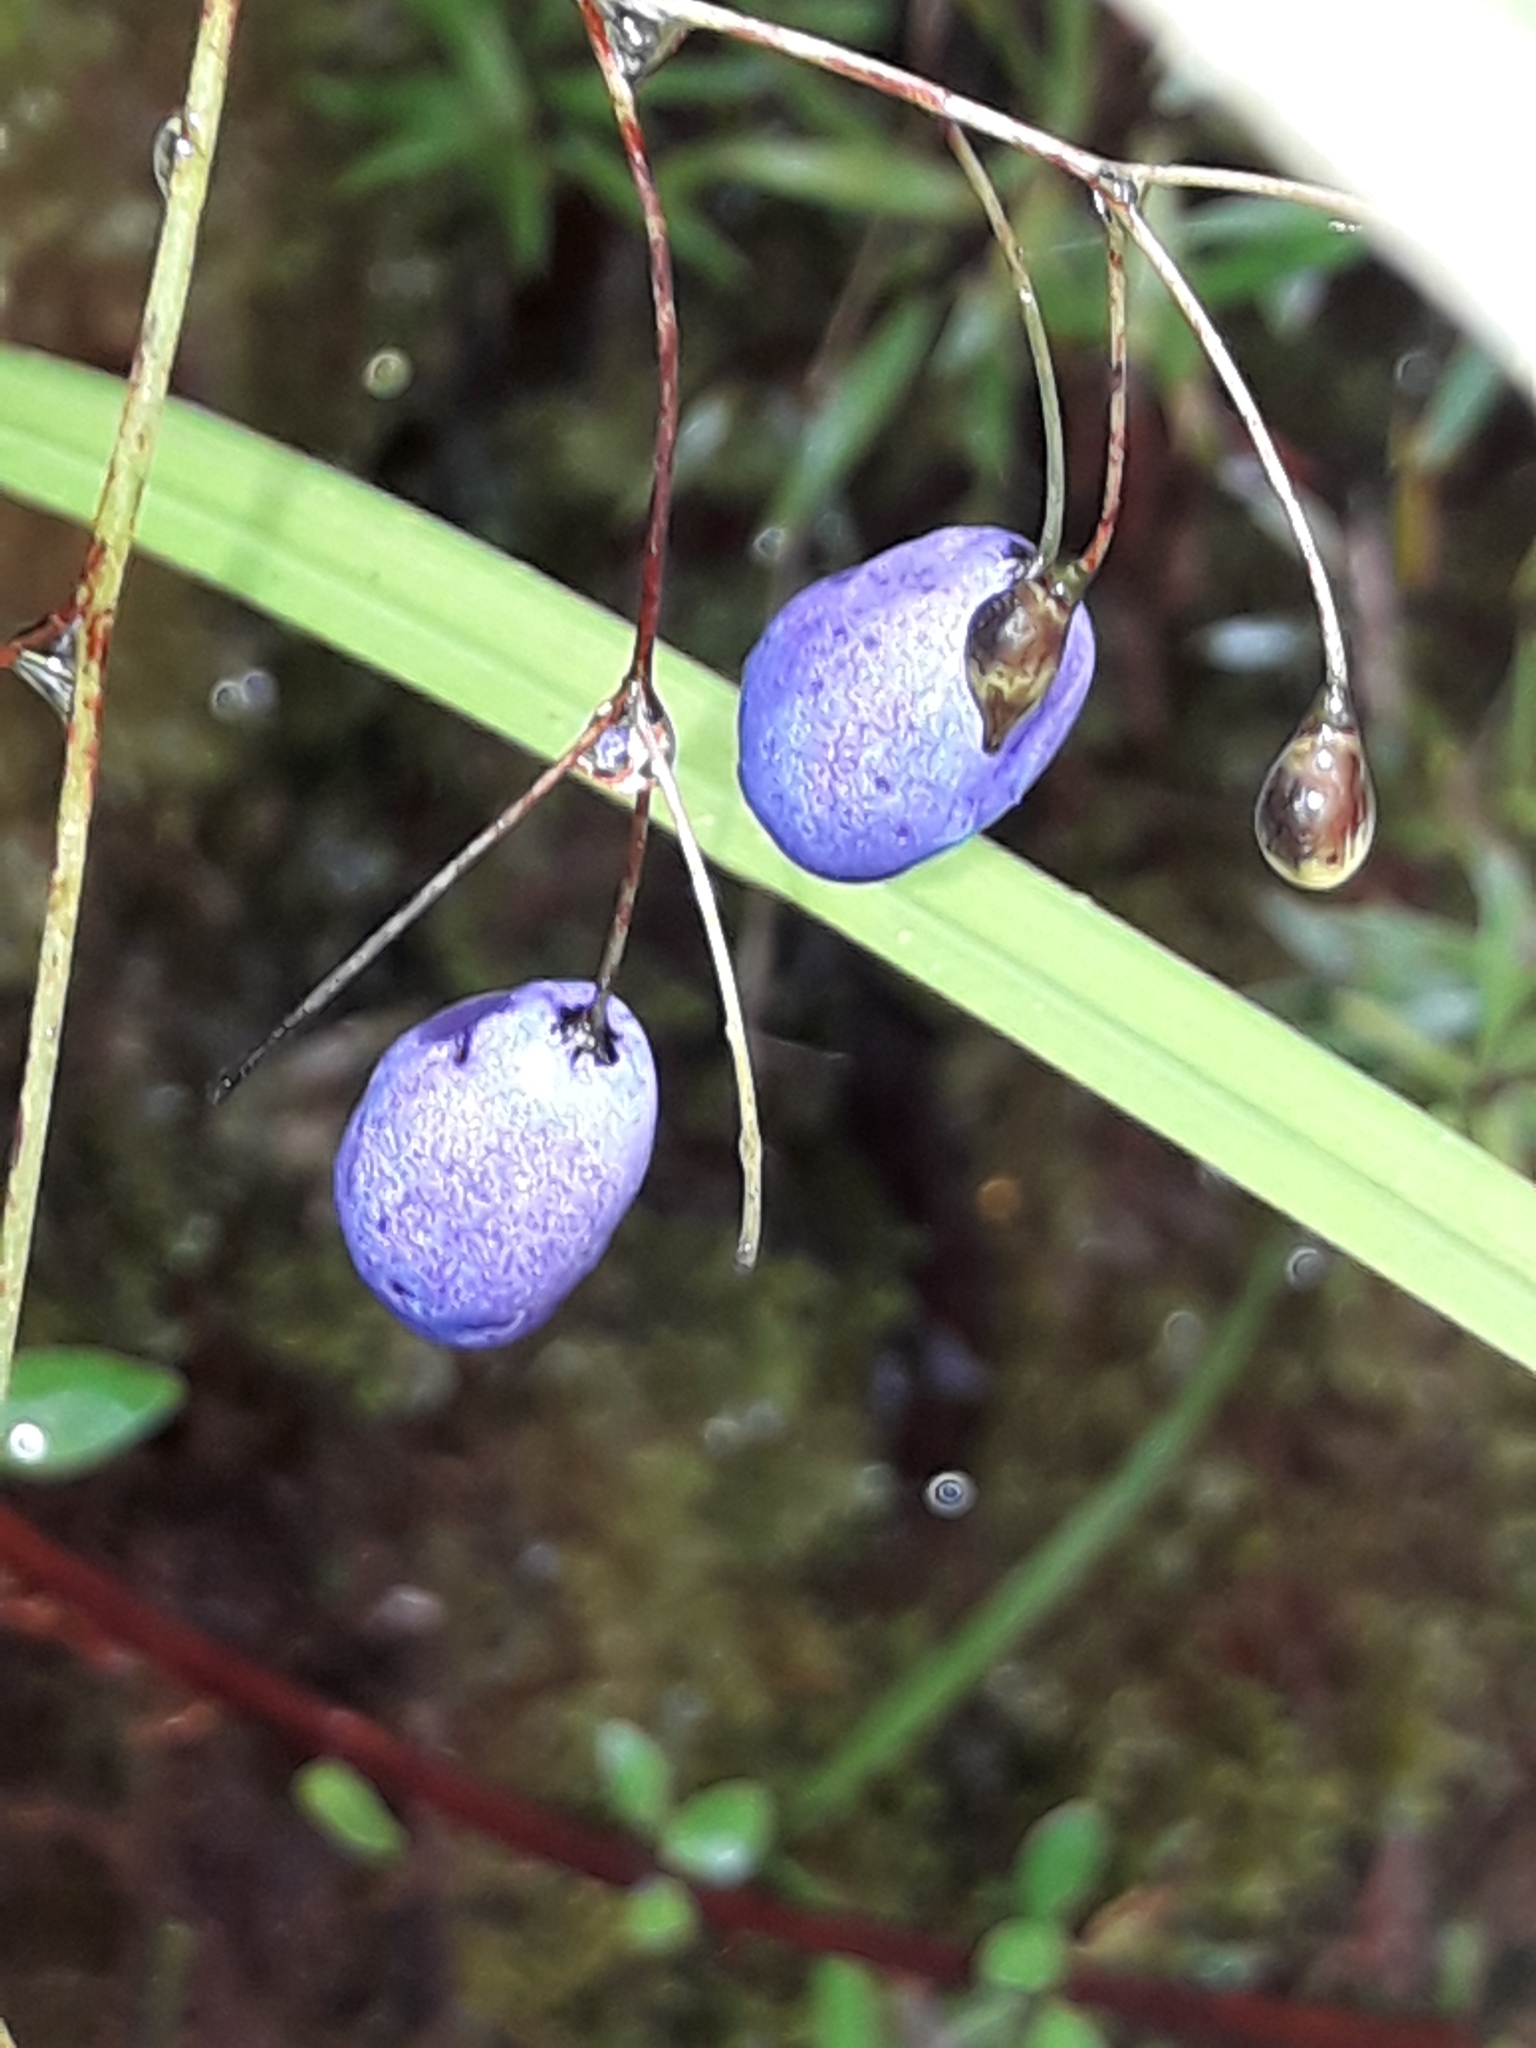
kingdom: Plantae
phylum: Tracheophyta
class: Liliopsida
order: Asparagales
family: Asphodelaceae
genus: Dianella
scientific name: Dianella nigra
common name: New zealand-blueberry
